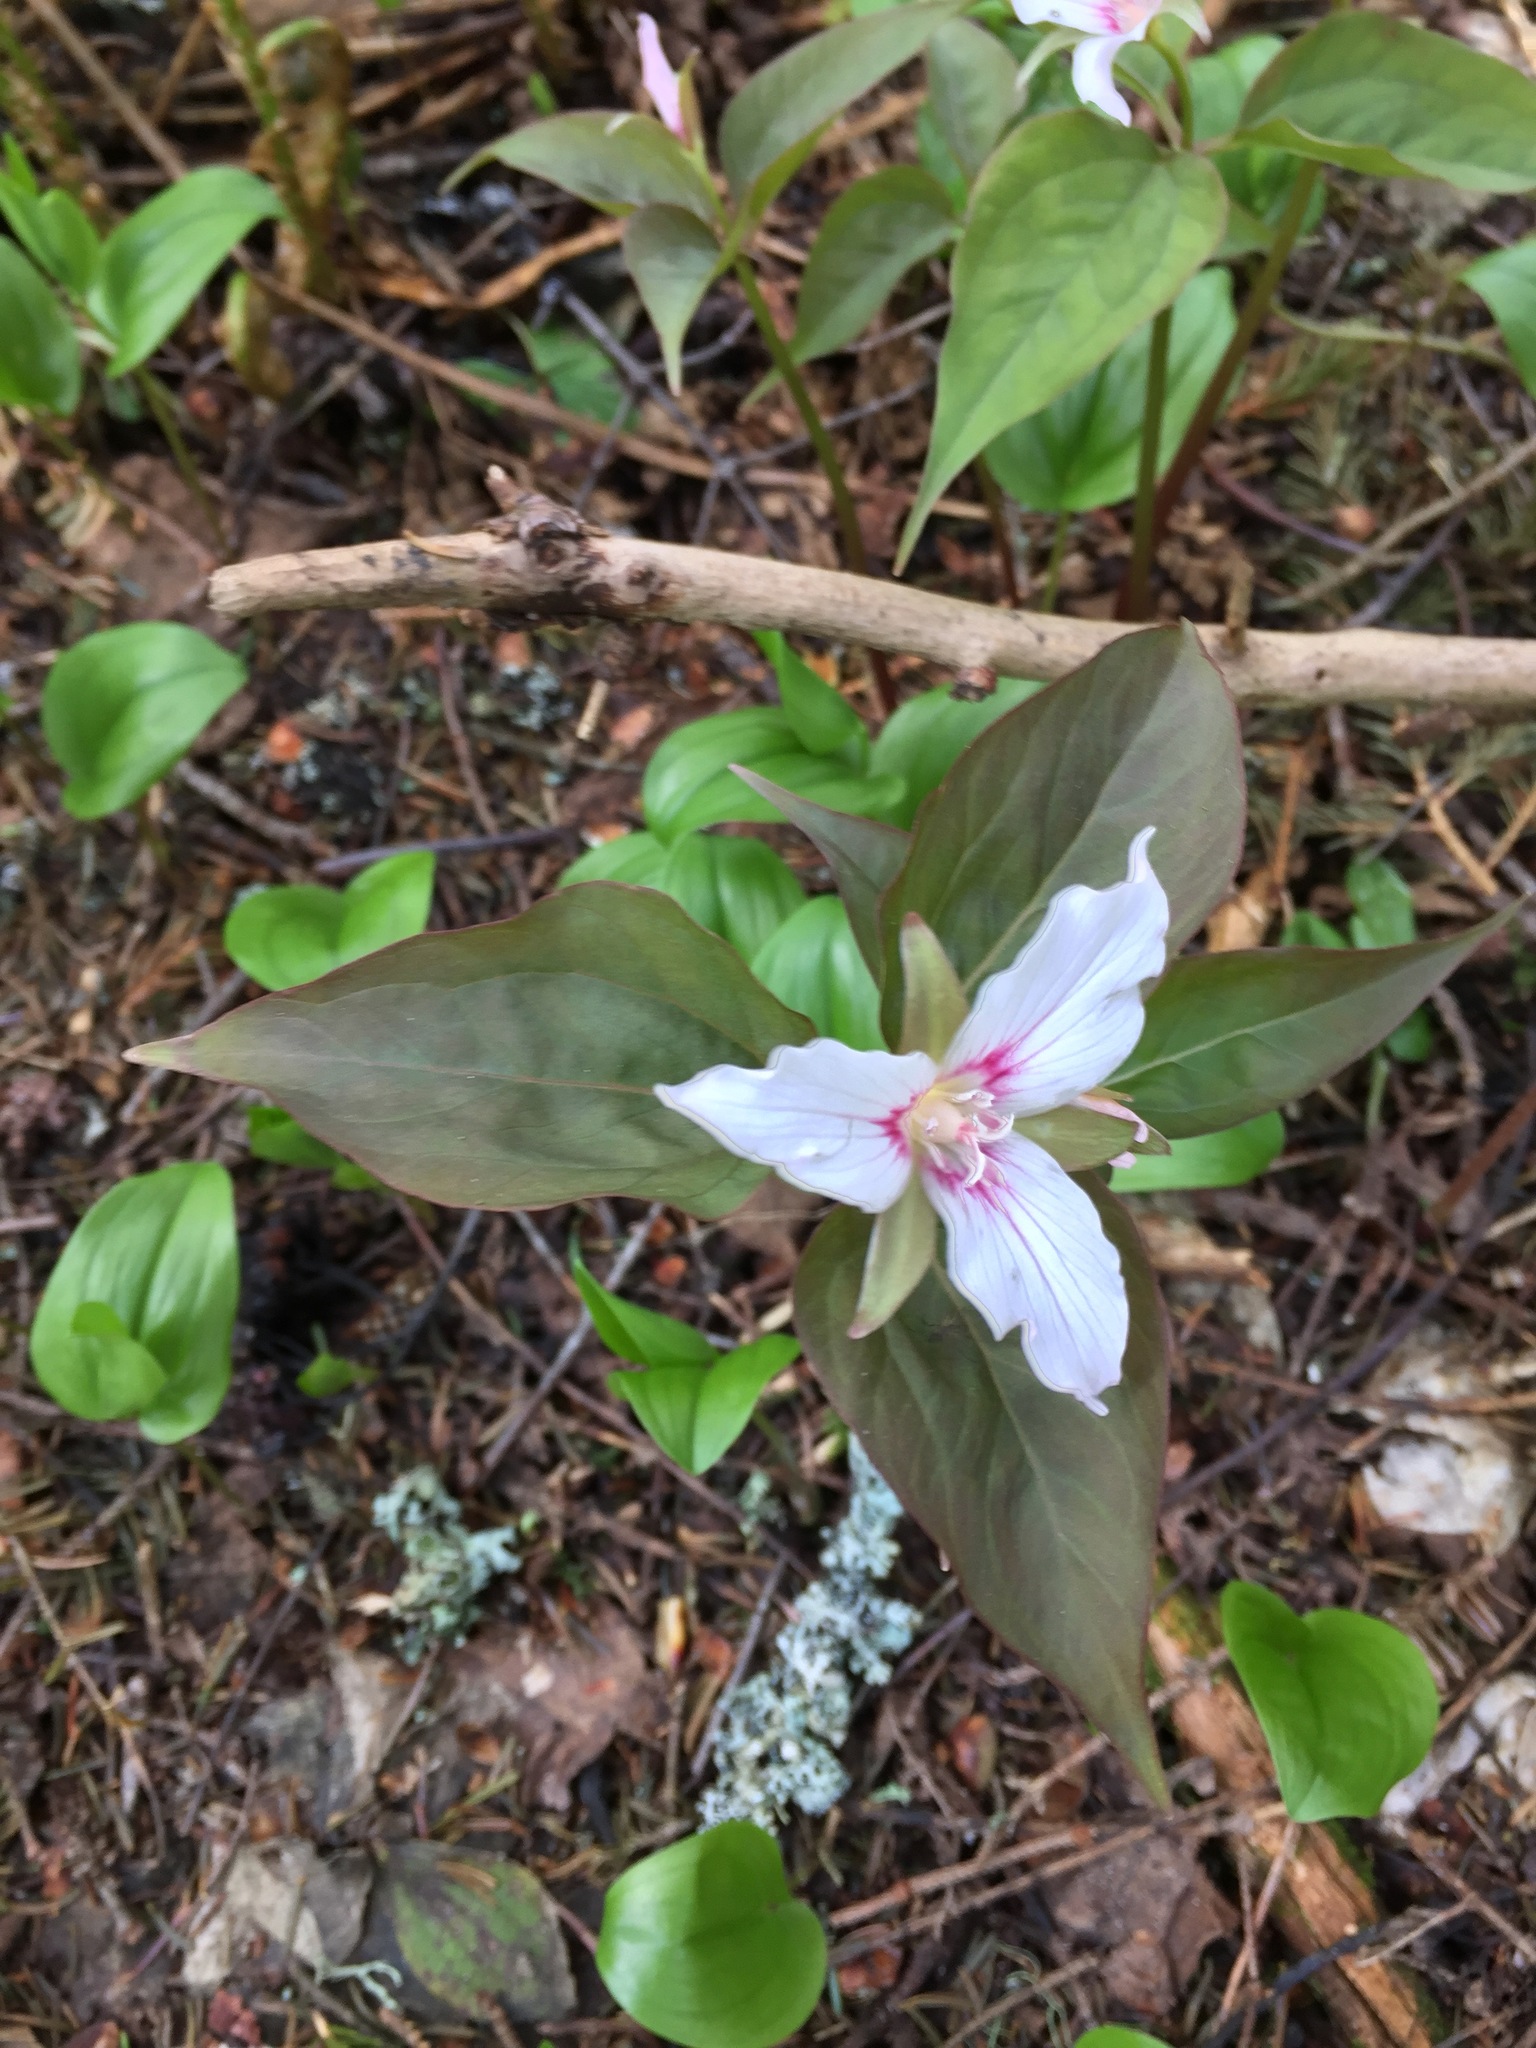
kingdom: Plantae
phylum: Tracheophyta
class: Liliopsida
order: Liliales
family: Melanthiaceae
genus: Trillium
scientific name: Trillium undulatum
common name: Paint trillium
